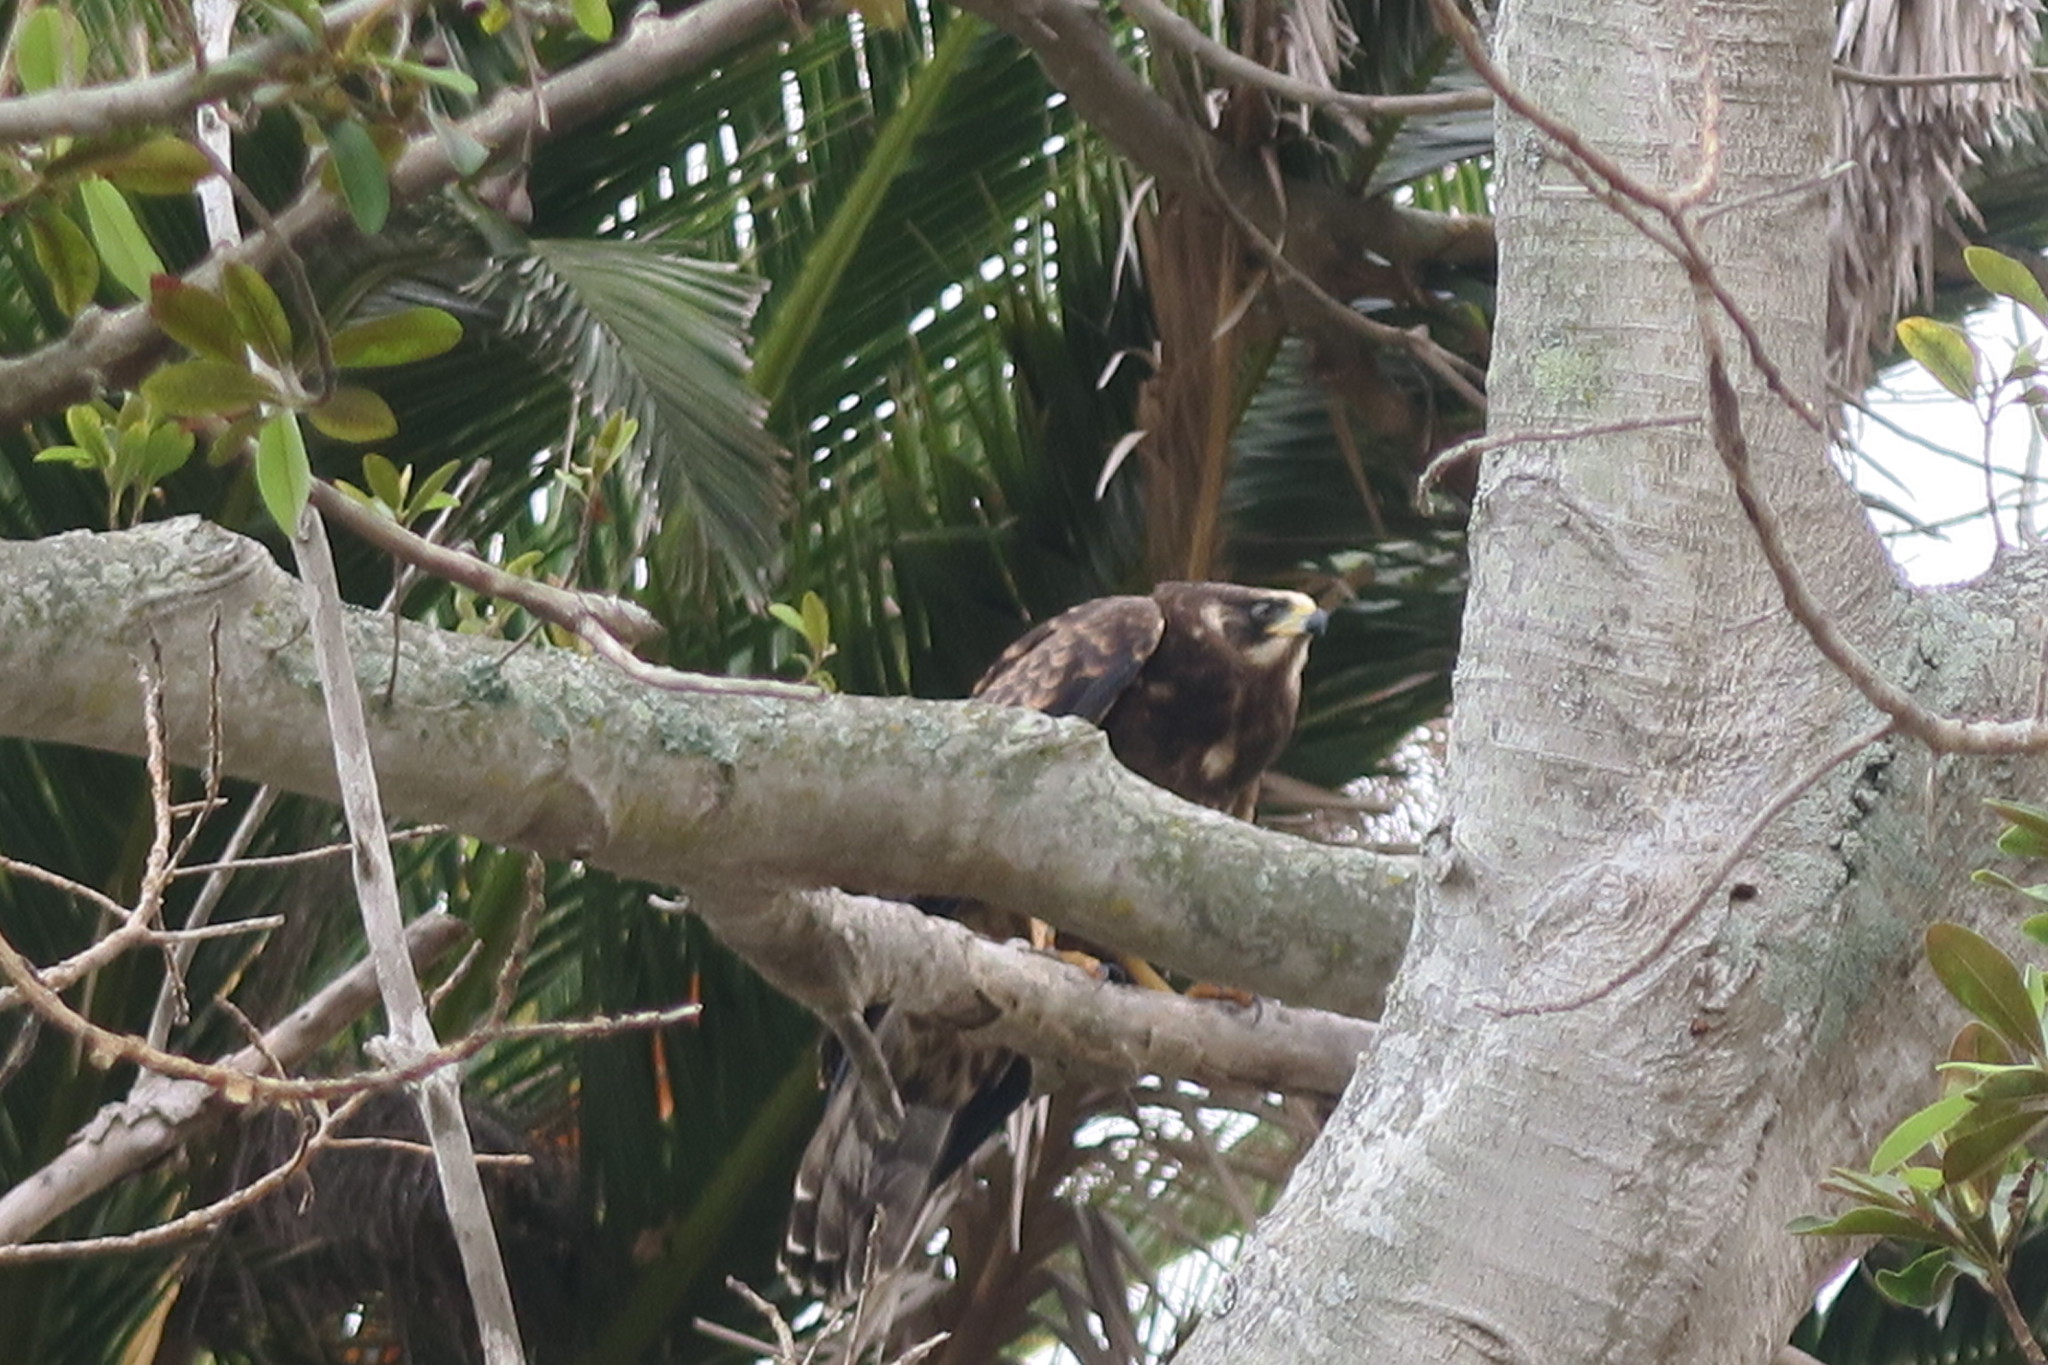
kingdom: Animalia
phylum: Chordata
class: Aves
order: Accipitriformes
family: Accipitridae
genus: Polyboroides
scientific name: Polyboroides typus
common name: African harrier-hawk
